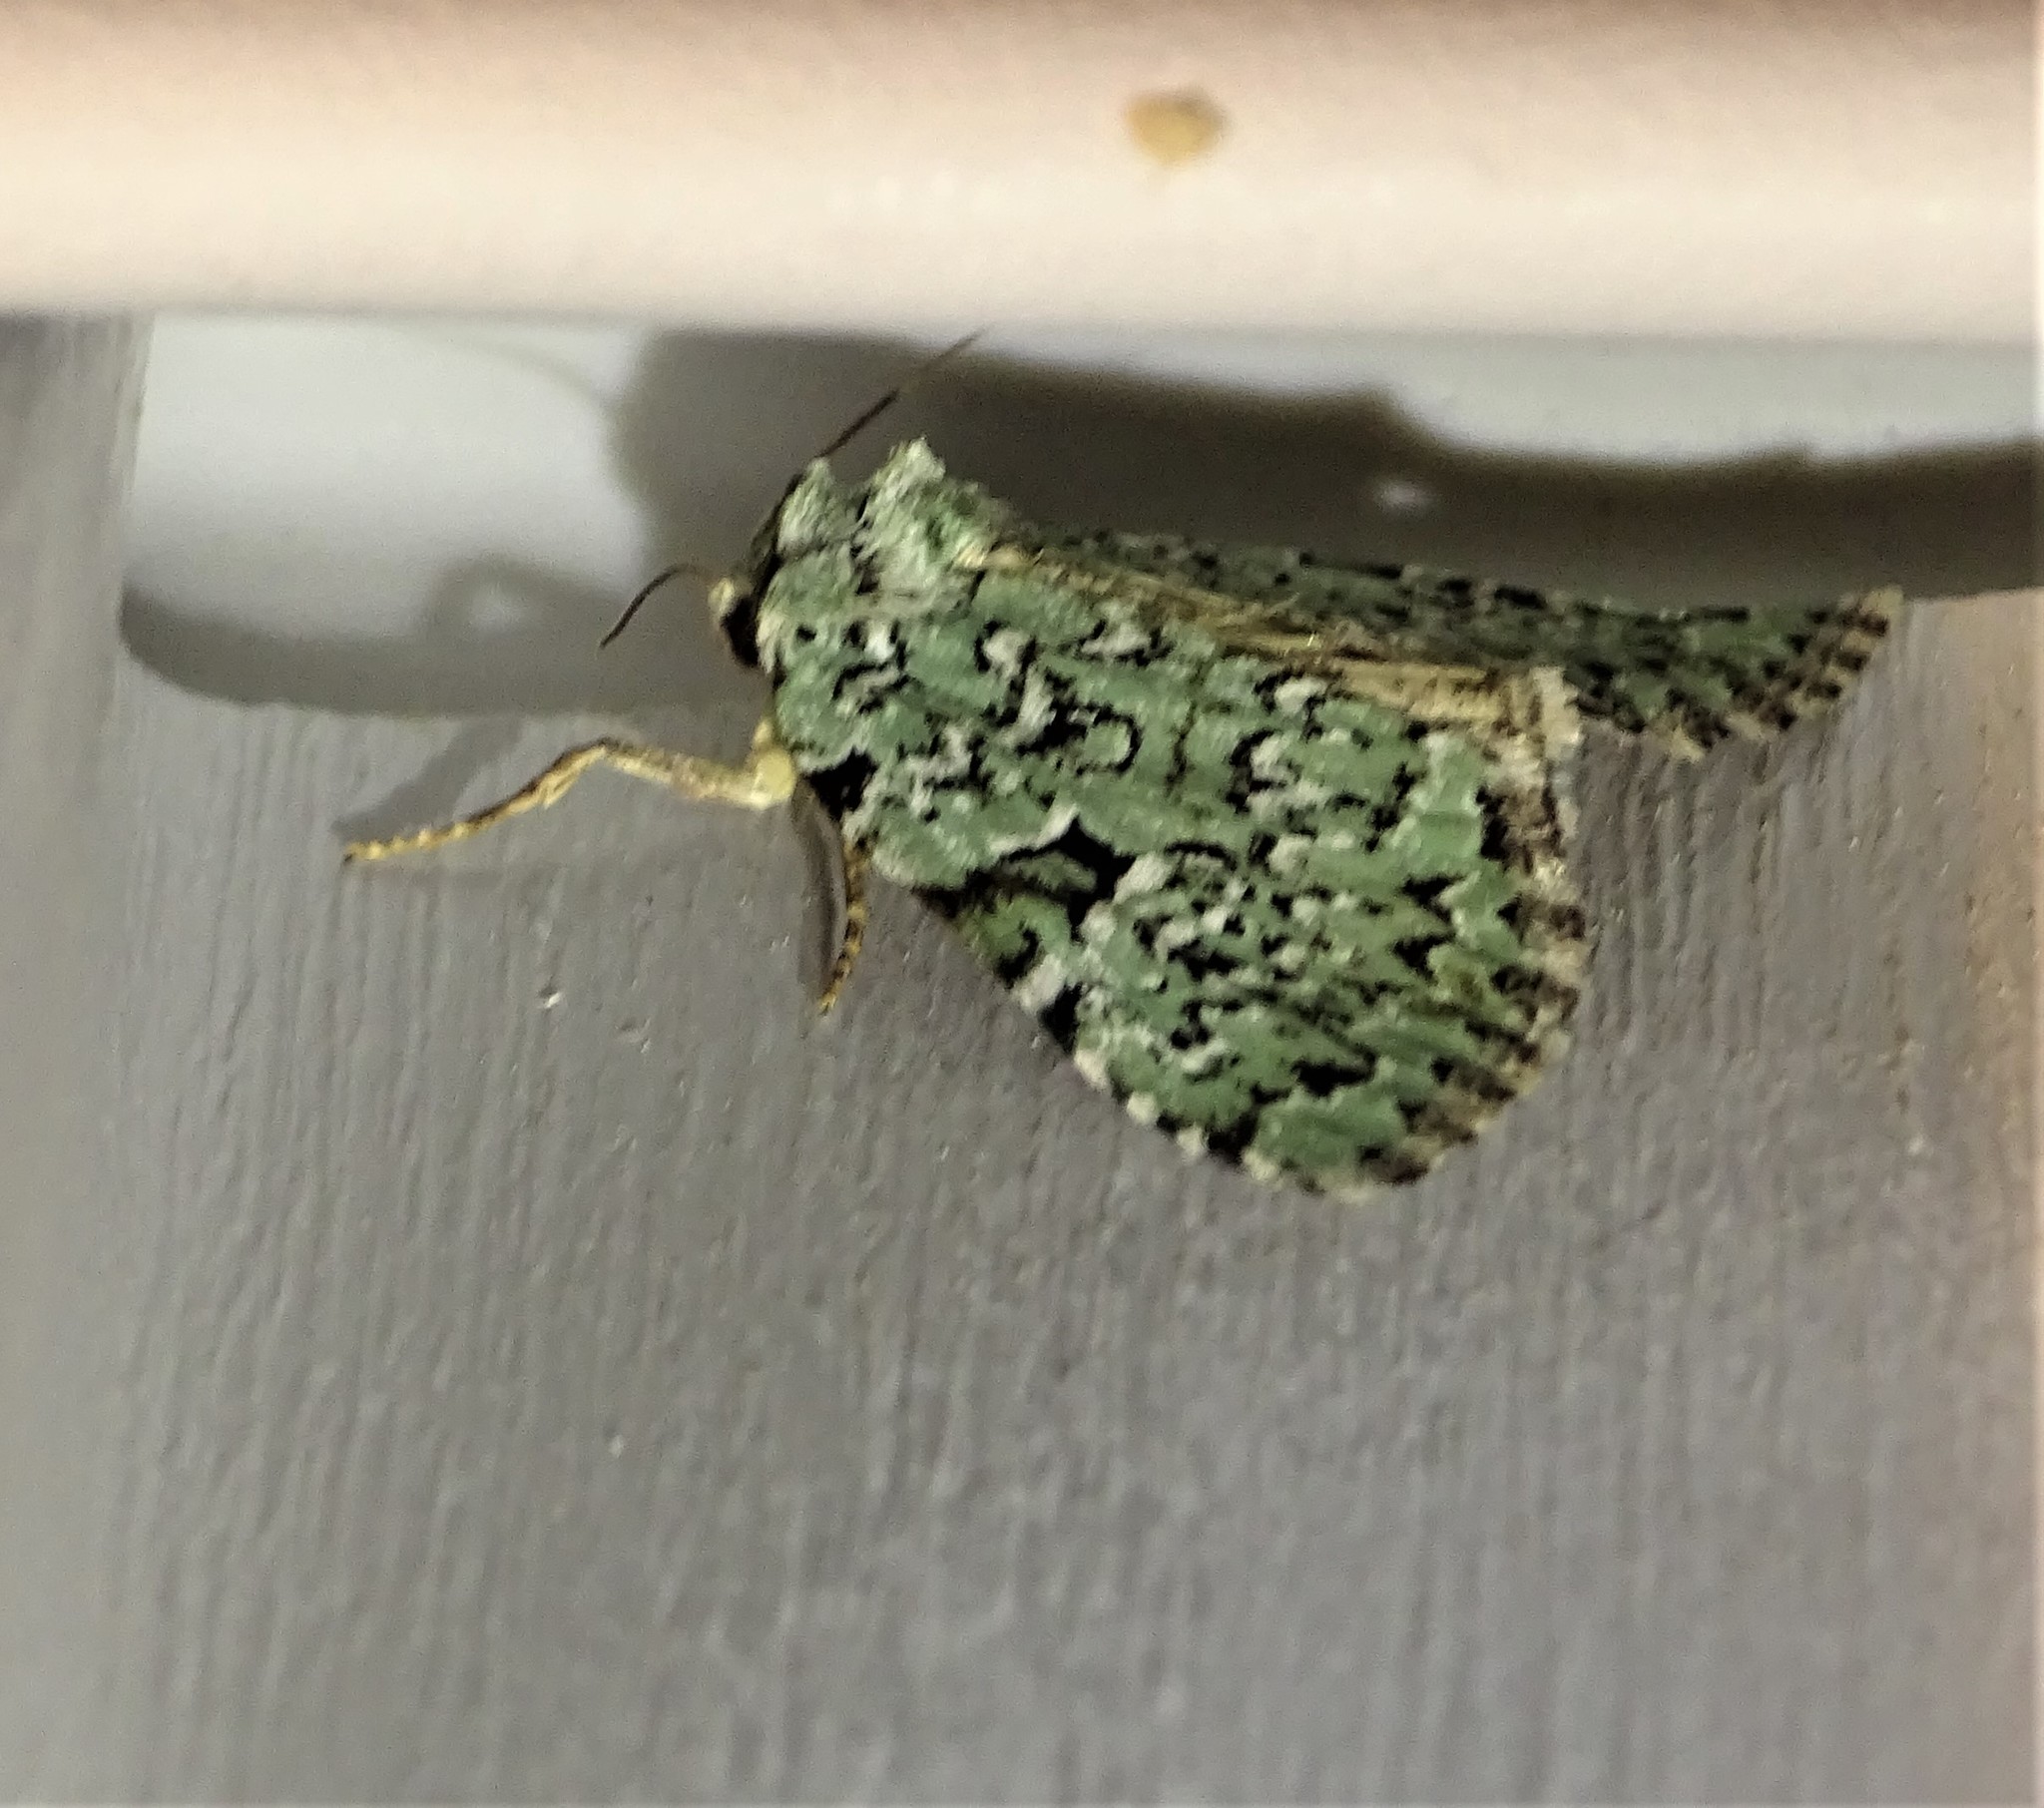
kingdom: Animalia
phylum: Arthropoda
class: Insecta
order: Lepidoptera
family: Noctuidae
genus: Leuconycta
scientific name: Leuconycta diphteroides
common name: Green leuconycta moth
